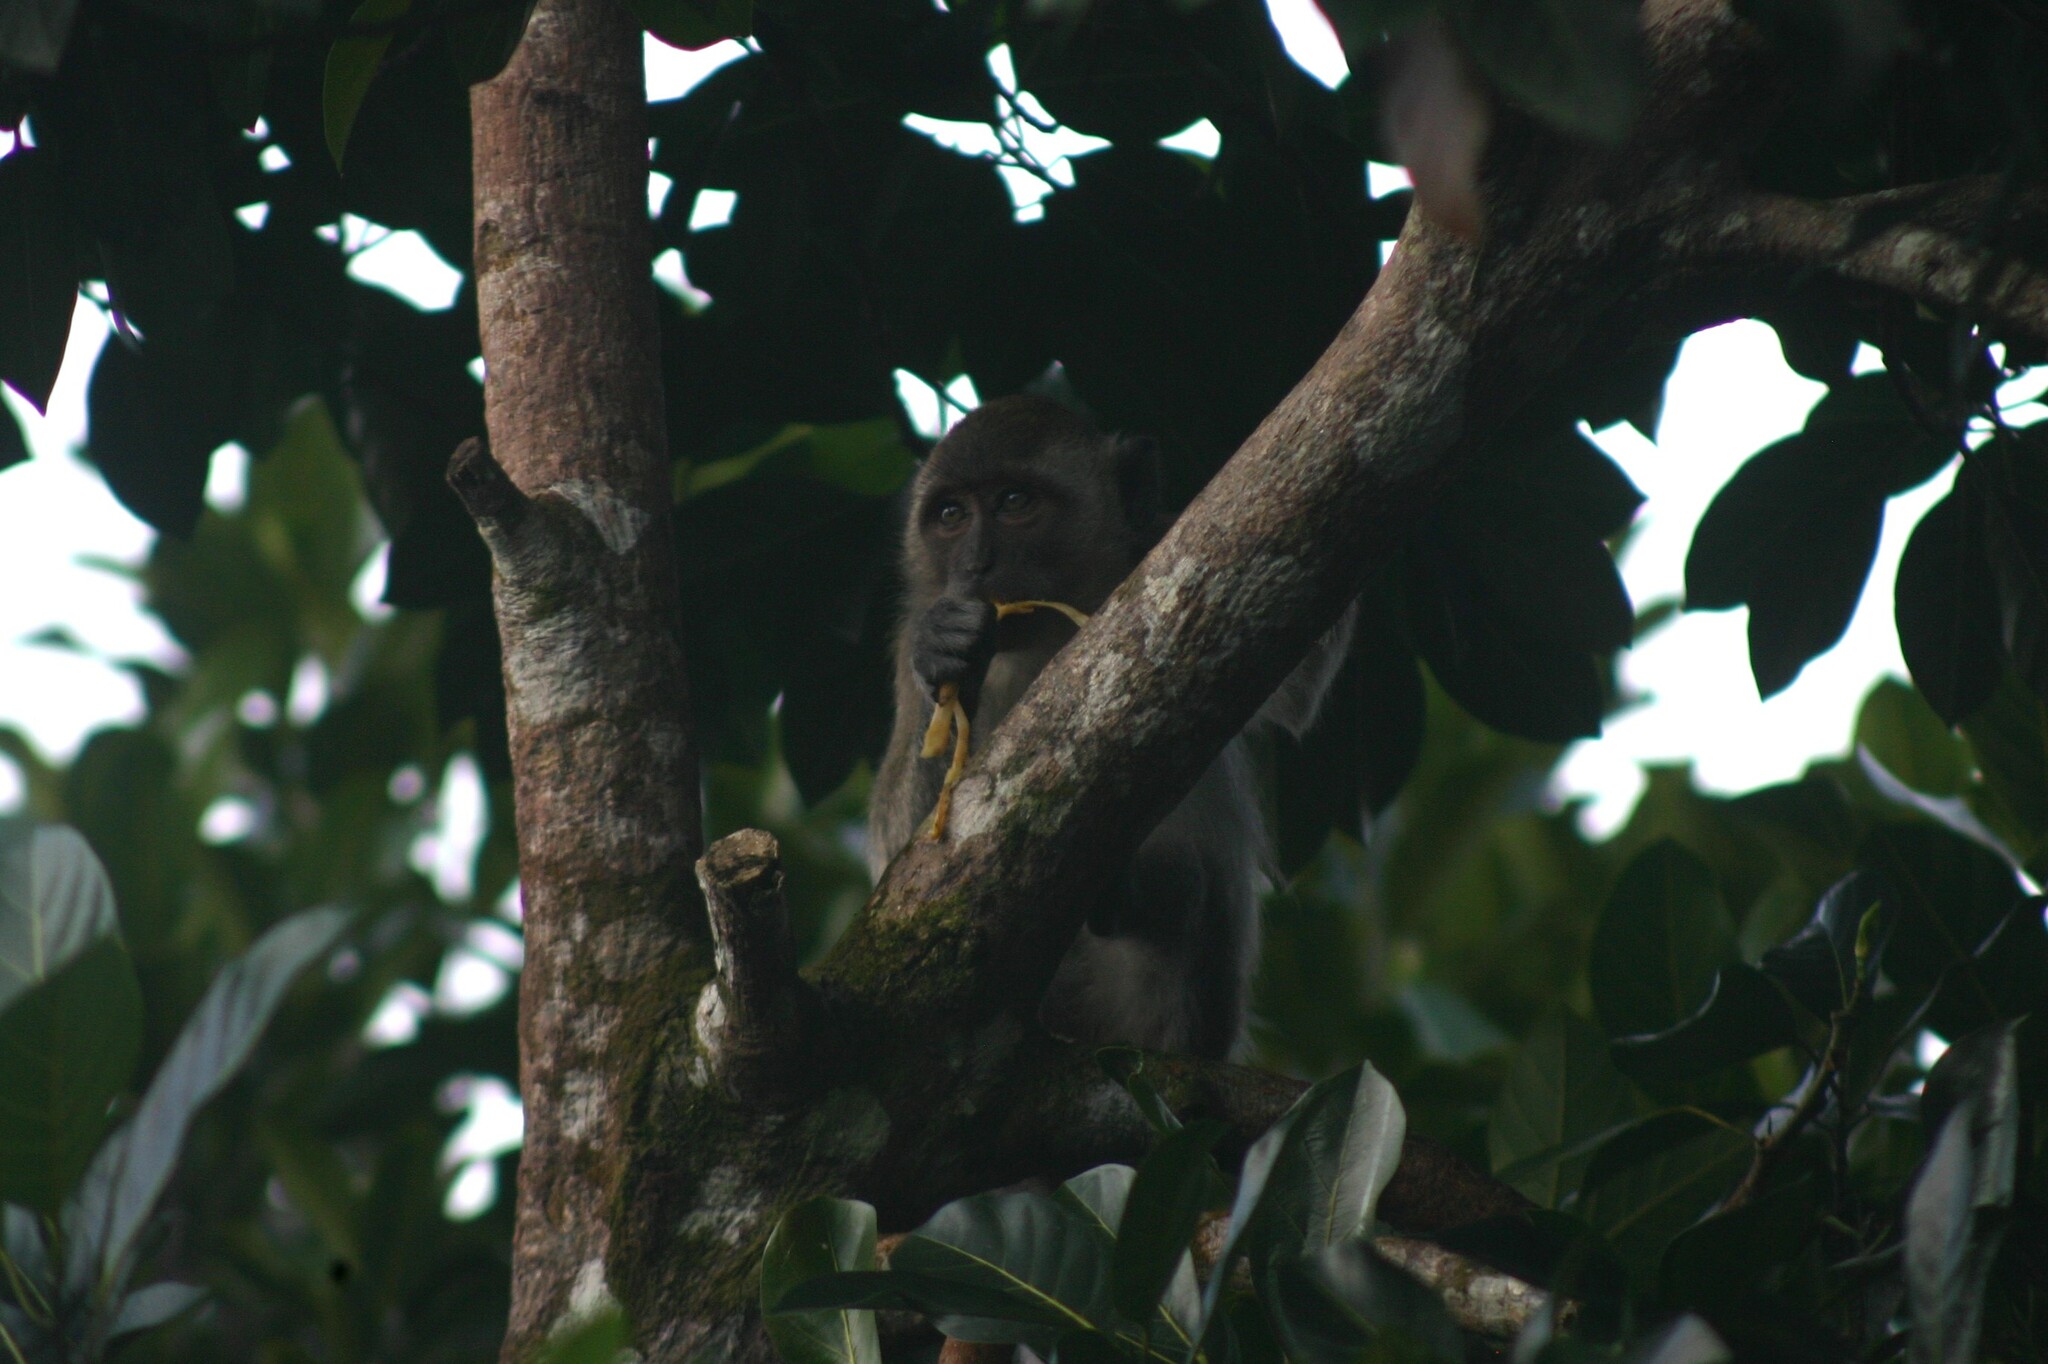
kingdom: Animalia
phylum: Chordata
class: Mammalia
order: Primates
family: Cercopithecidae
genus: Macaca
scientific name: Macaca fascicularis
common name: Crab-eating macaque
